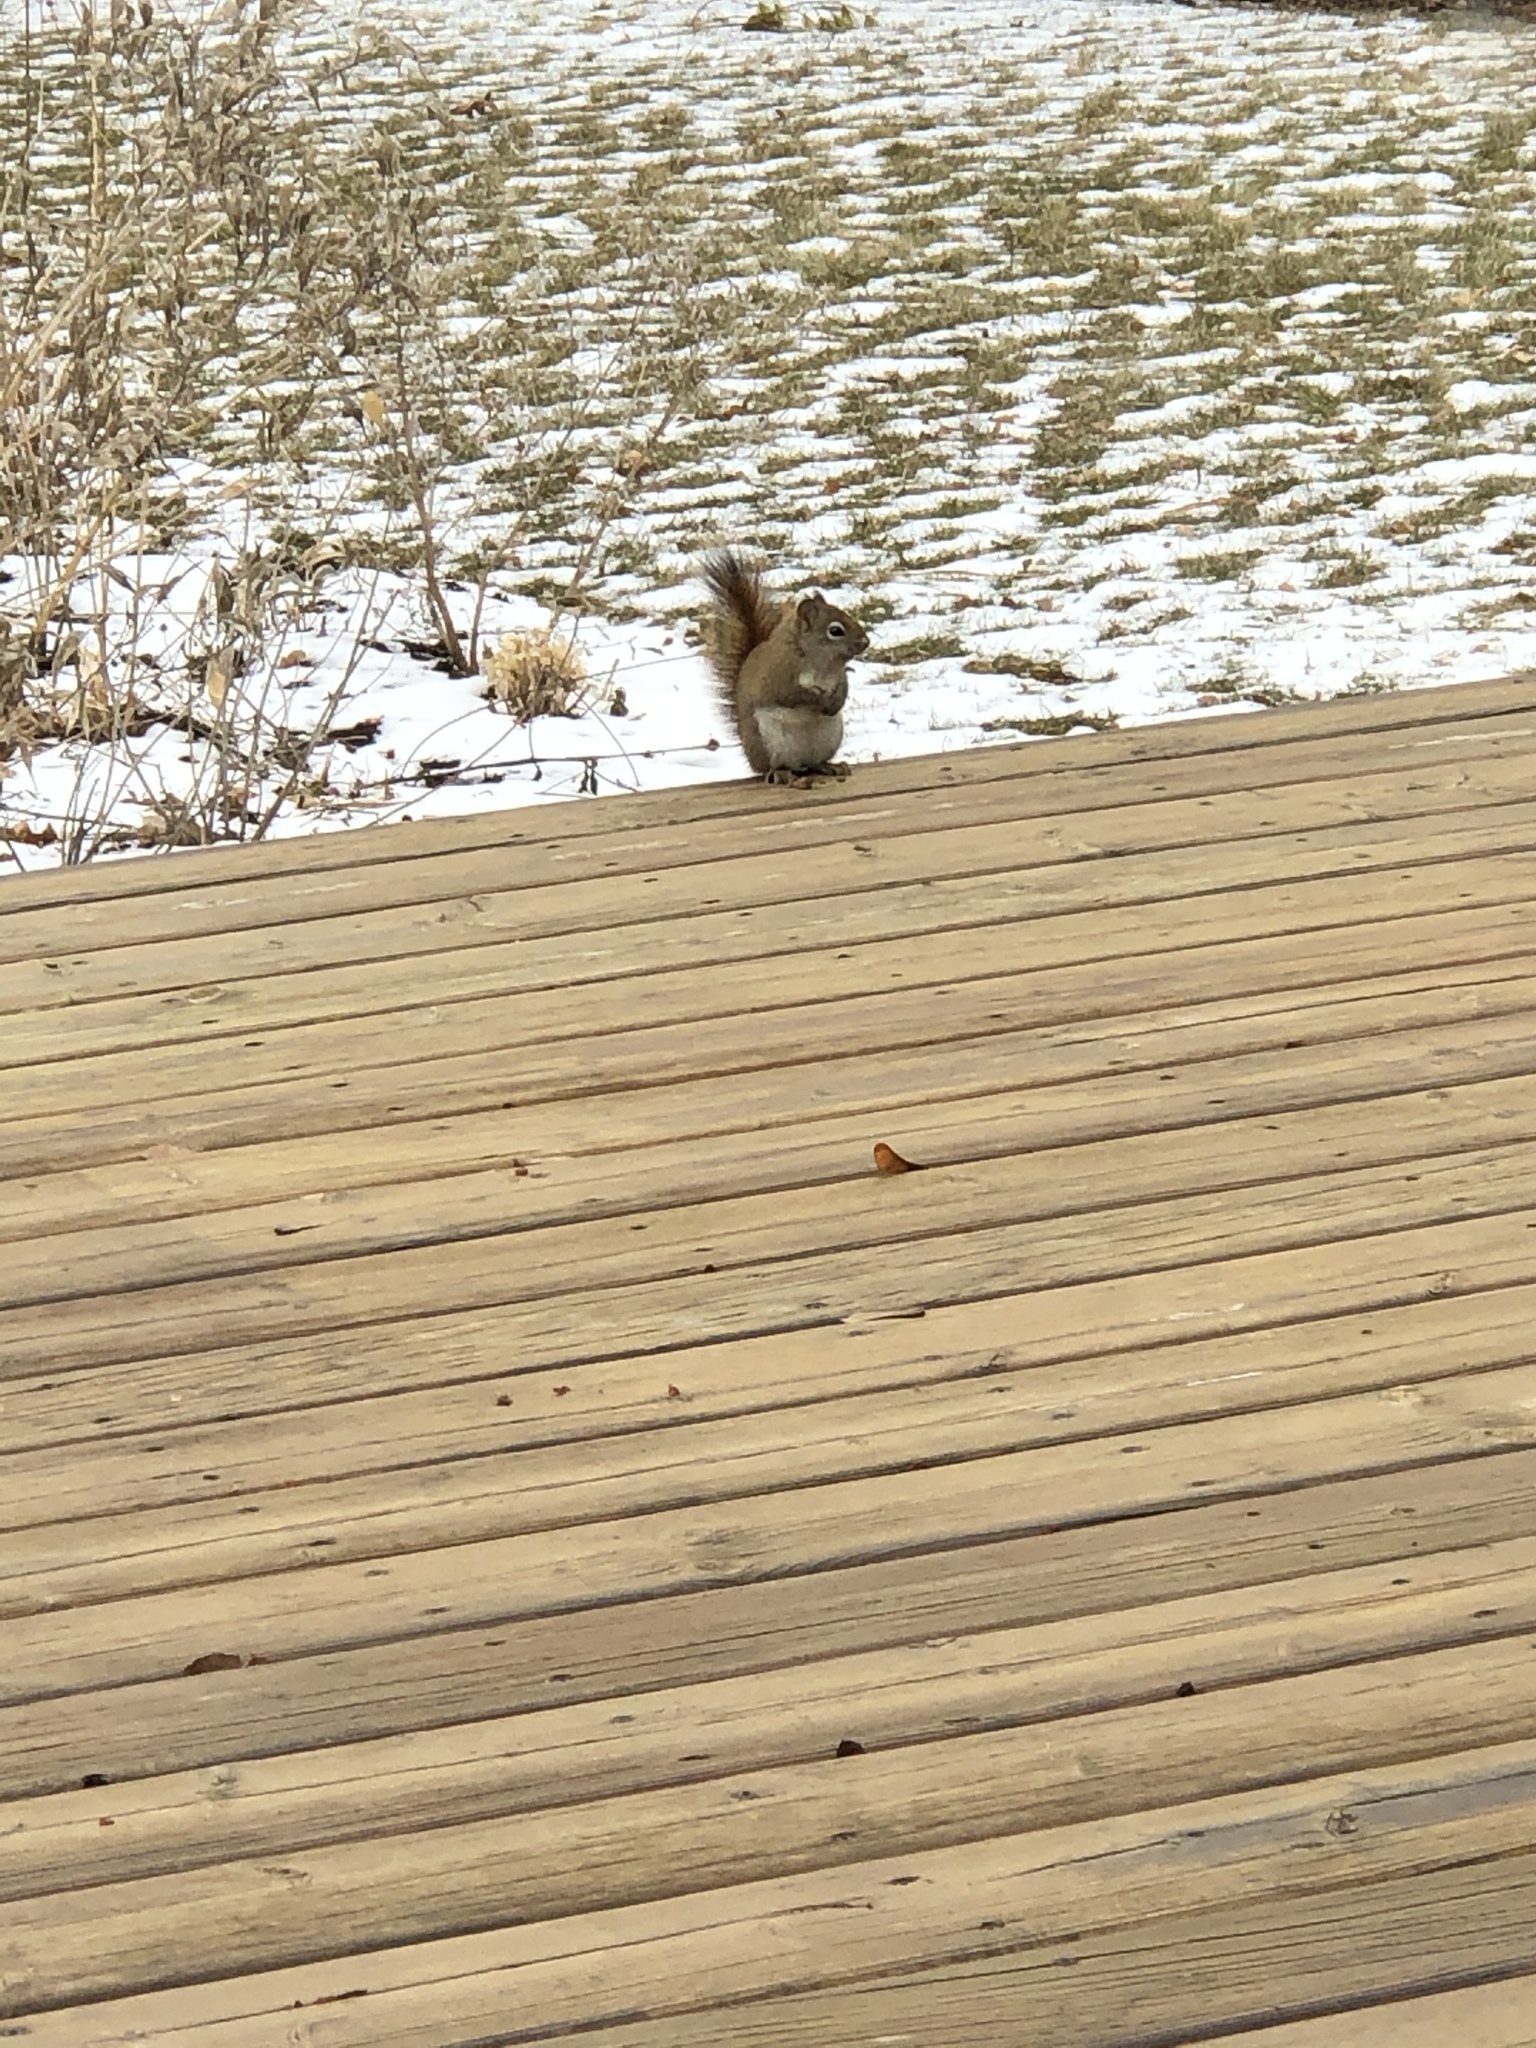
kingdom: Animalia
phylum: Chordata
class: Mammalia
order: Rodentia
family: Sciuridae
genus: Tamiasciurus
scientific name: Tamiasciurus hudsonicus
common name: Red squirrel
